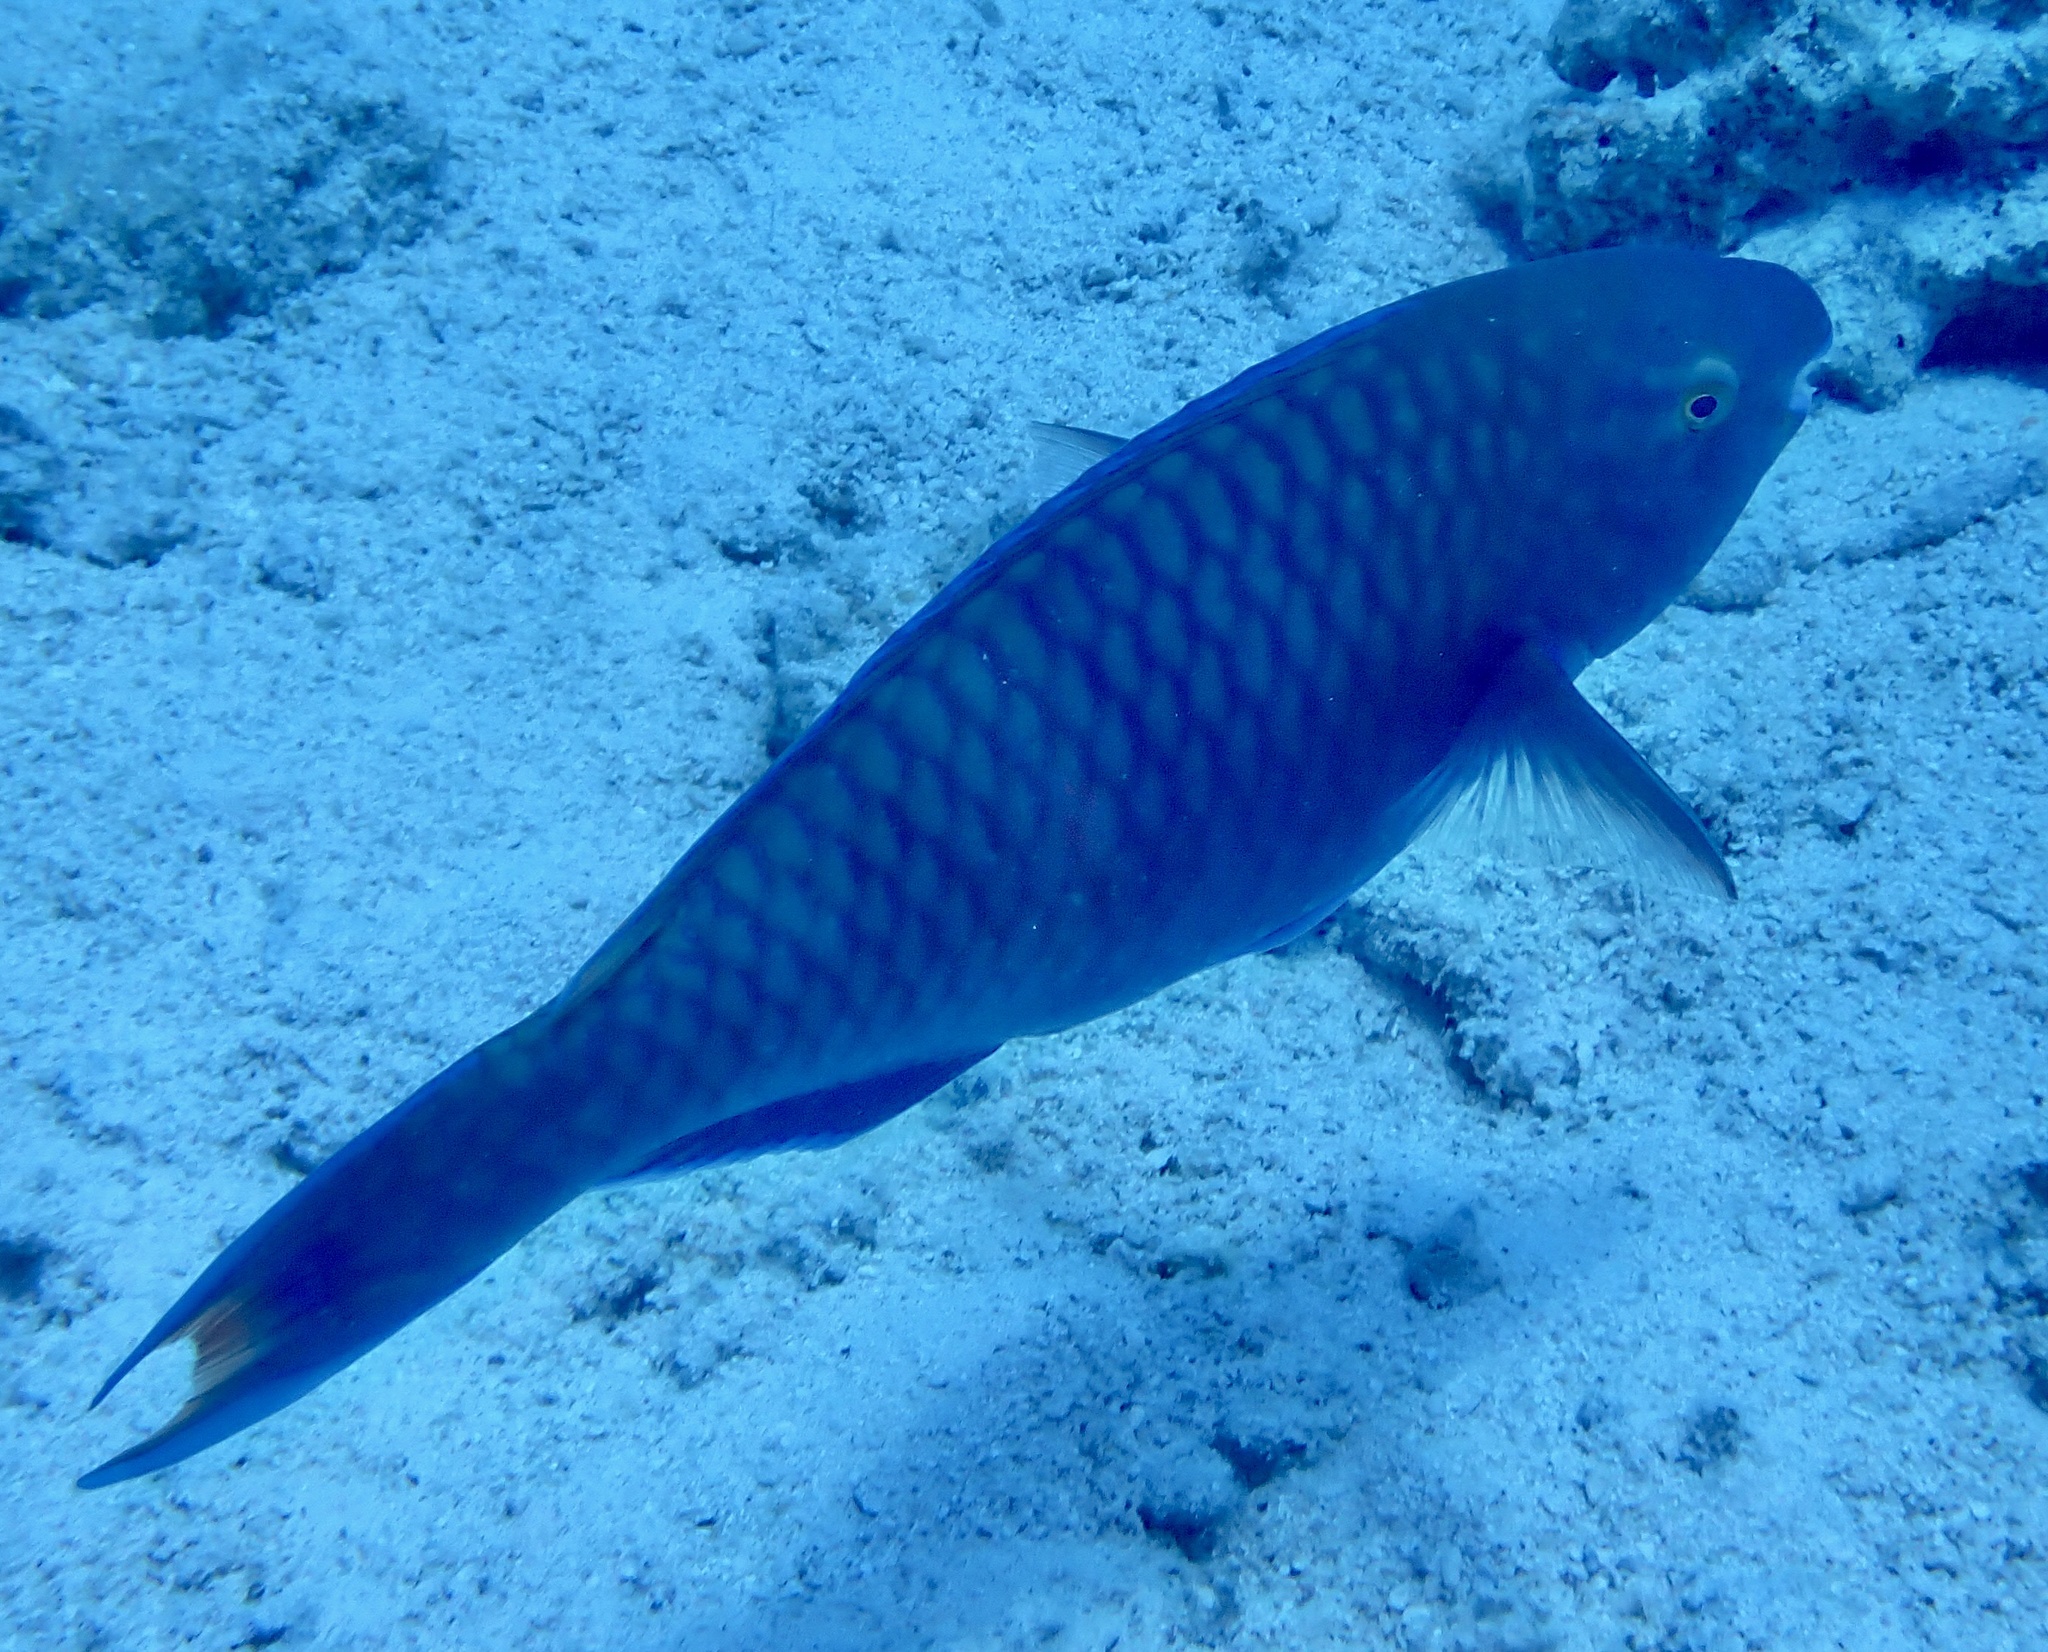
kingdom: Animalia
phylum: Chordata
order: Perciformes
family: Scaridae
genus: Scarus
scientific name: Scarus fuscopurpureus
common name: Purple-brown parrotfish
